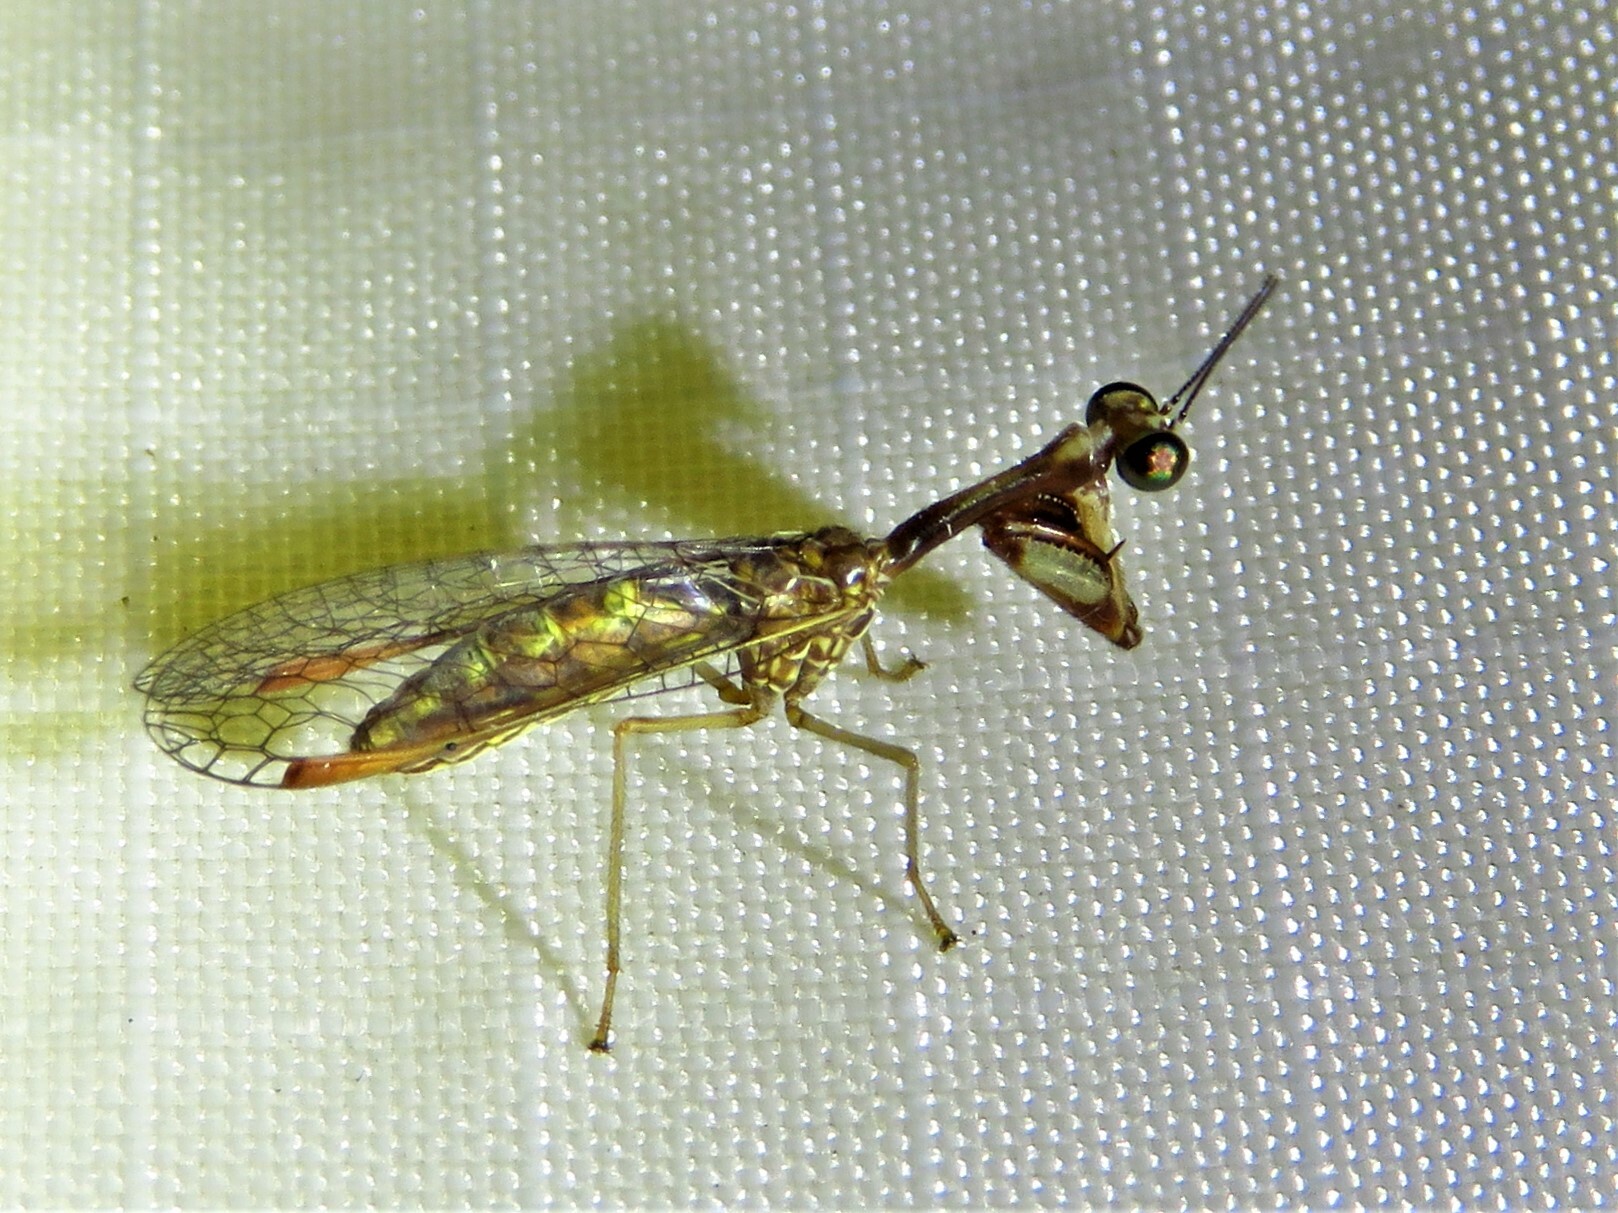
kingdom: Animalia
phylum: Arthropoda
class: Insecta
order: Neuroptera
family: Mantispidae
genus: Leptomantispa
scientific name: Leptomantispa pulchella
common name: Stevens's mantidfly
